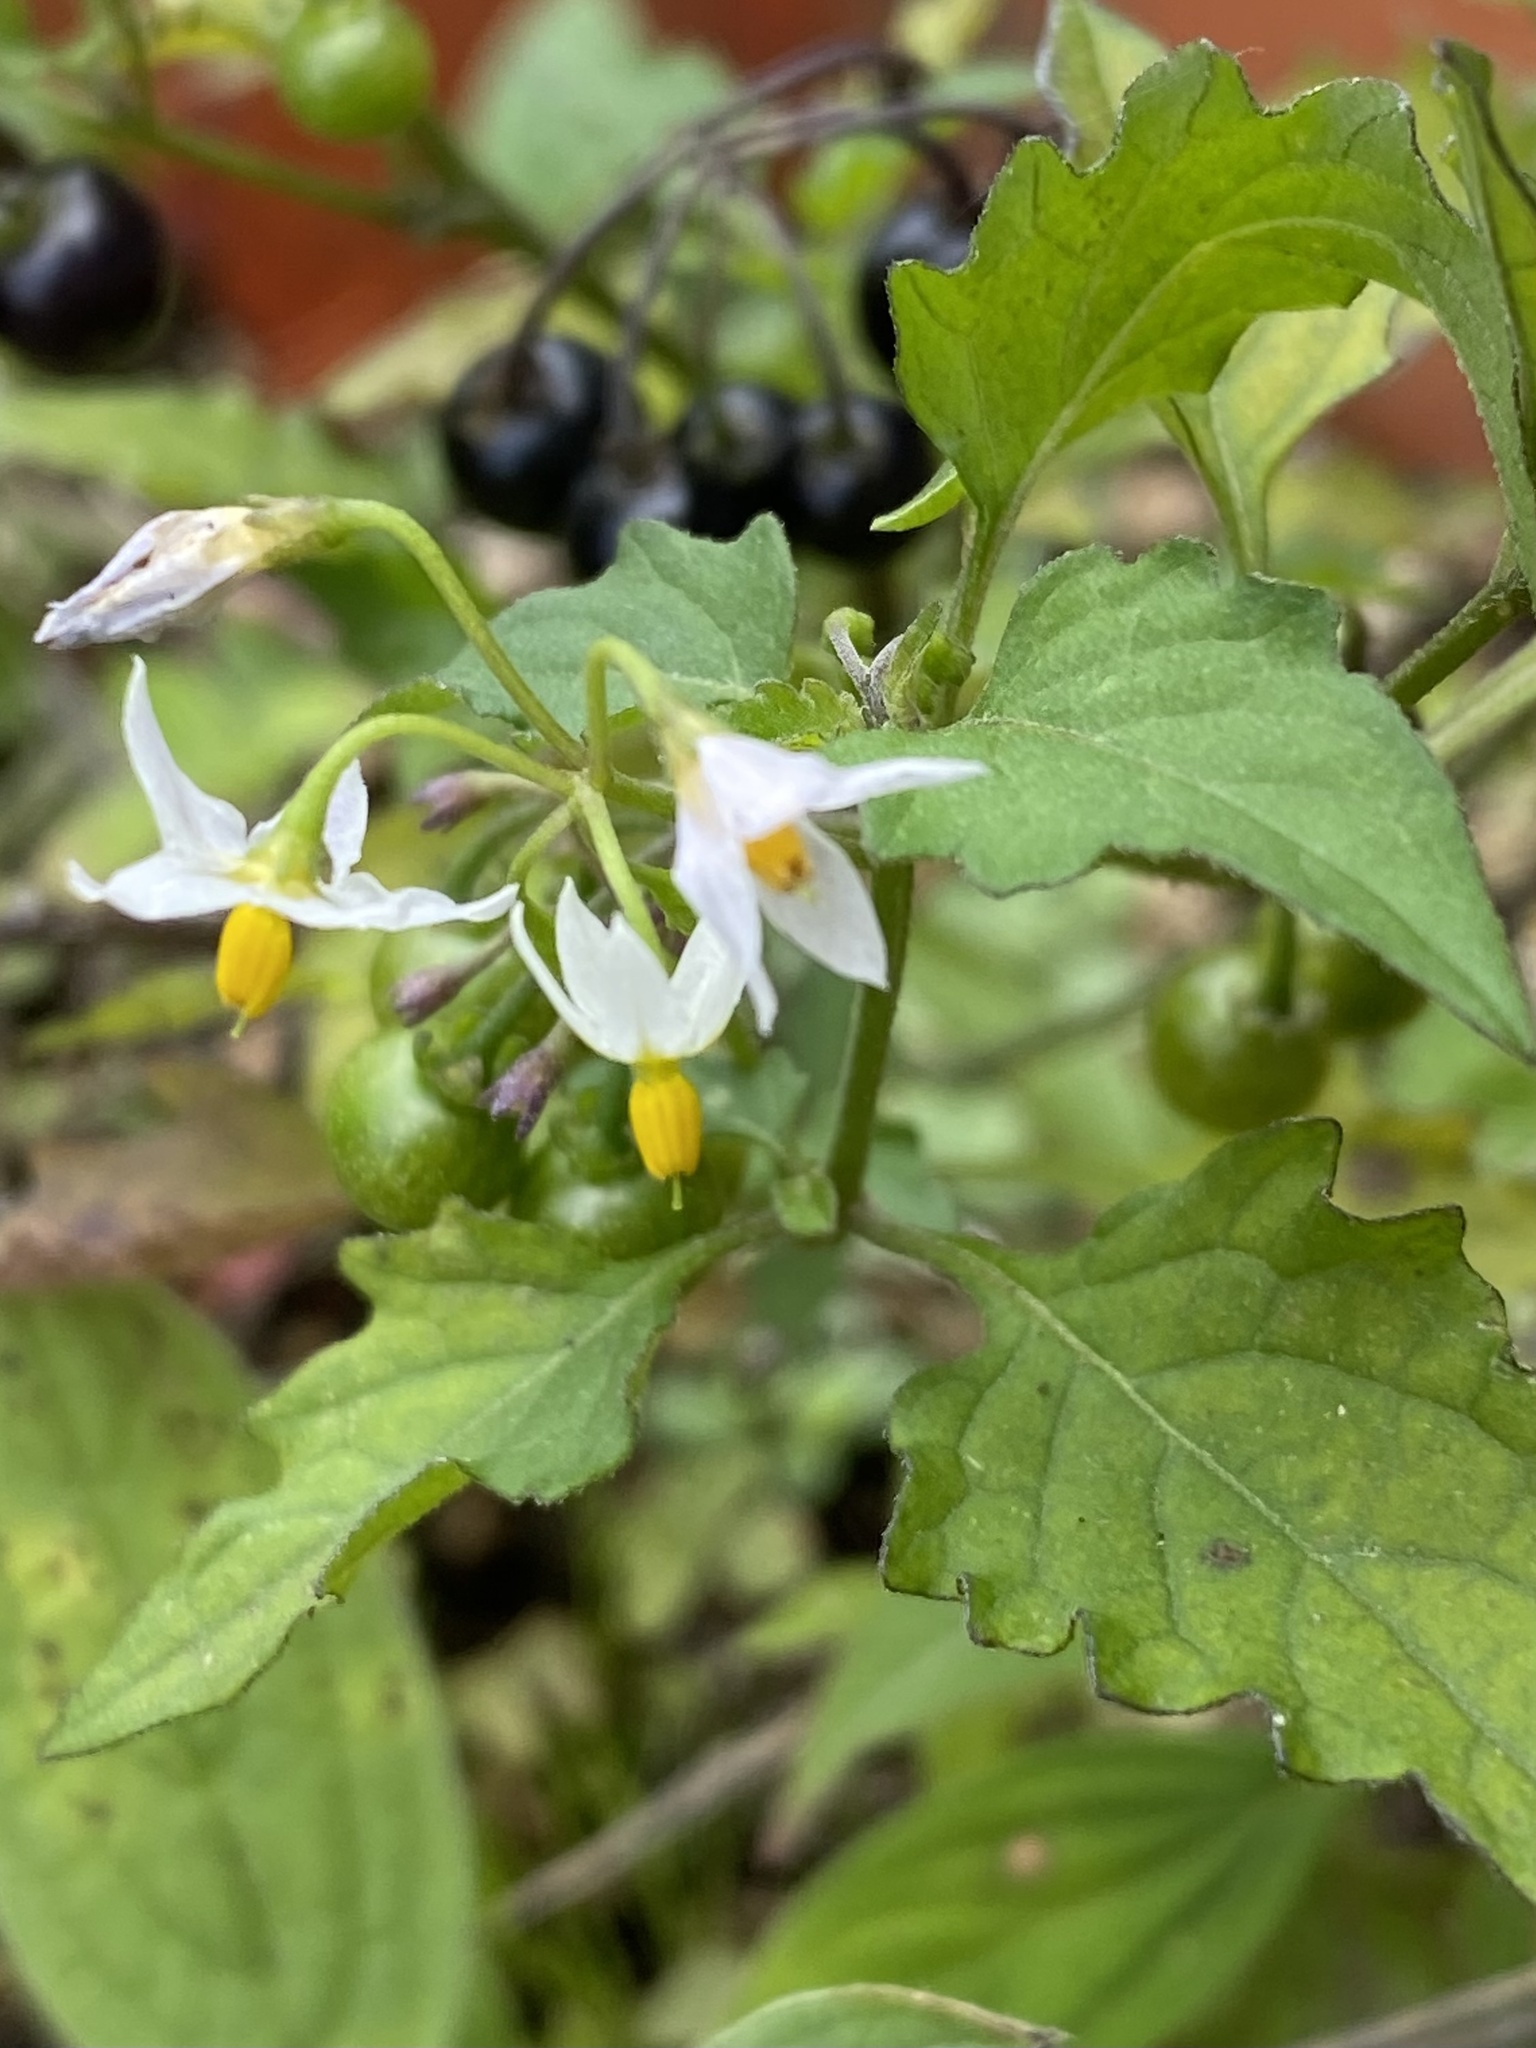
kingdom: Plantae
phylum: Tracheophyta
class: Magnoliopsida
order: Solanales
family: Solanaceae
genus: Solanum
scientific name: Solanum americanum
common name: American black nightshade
